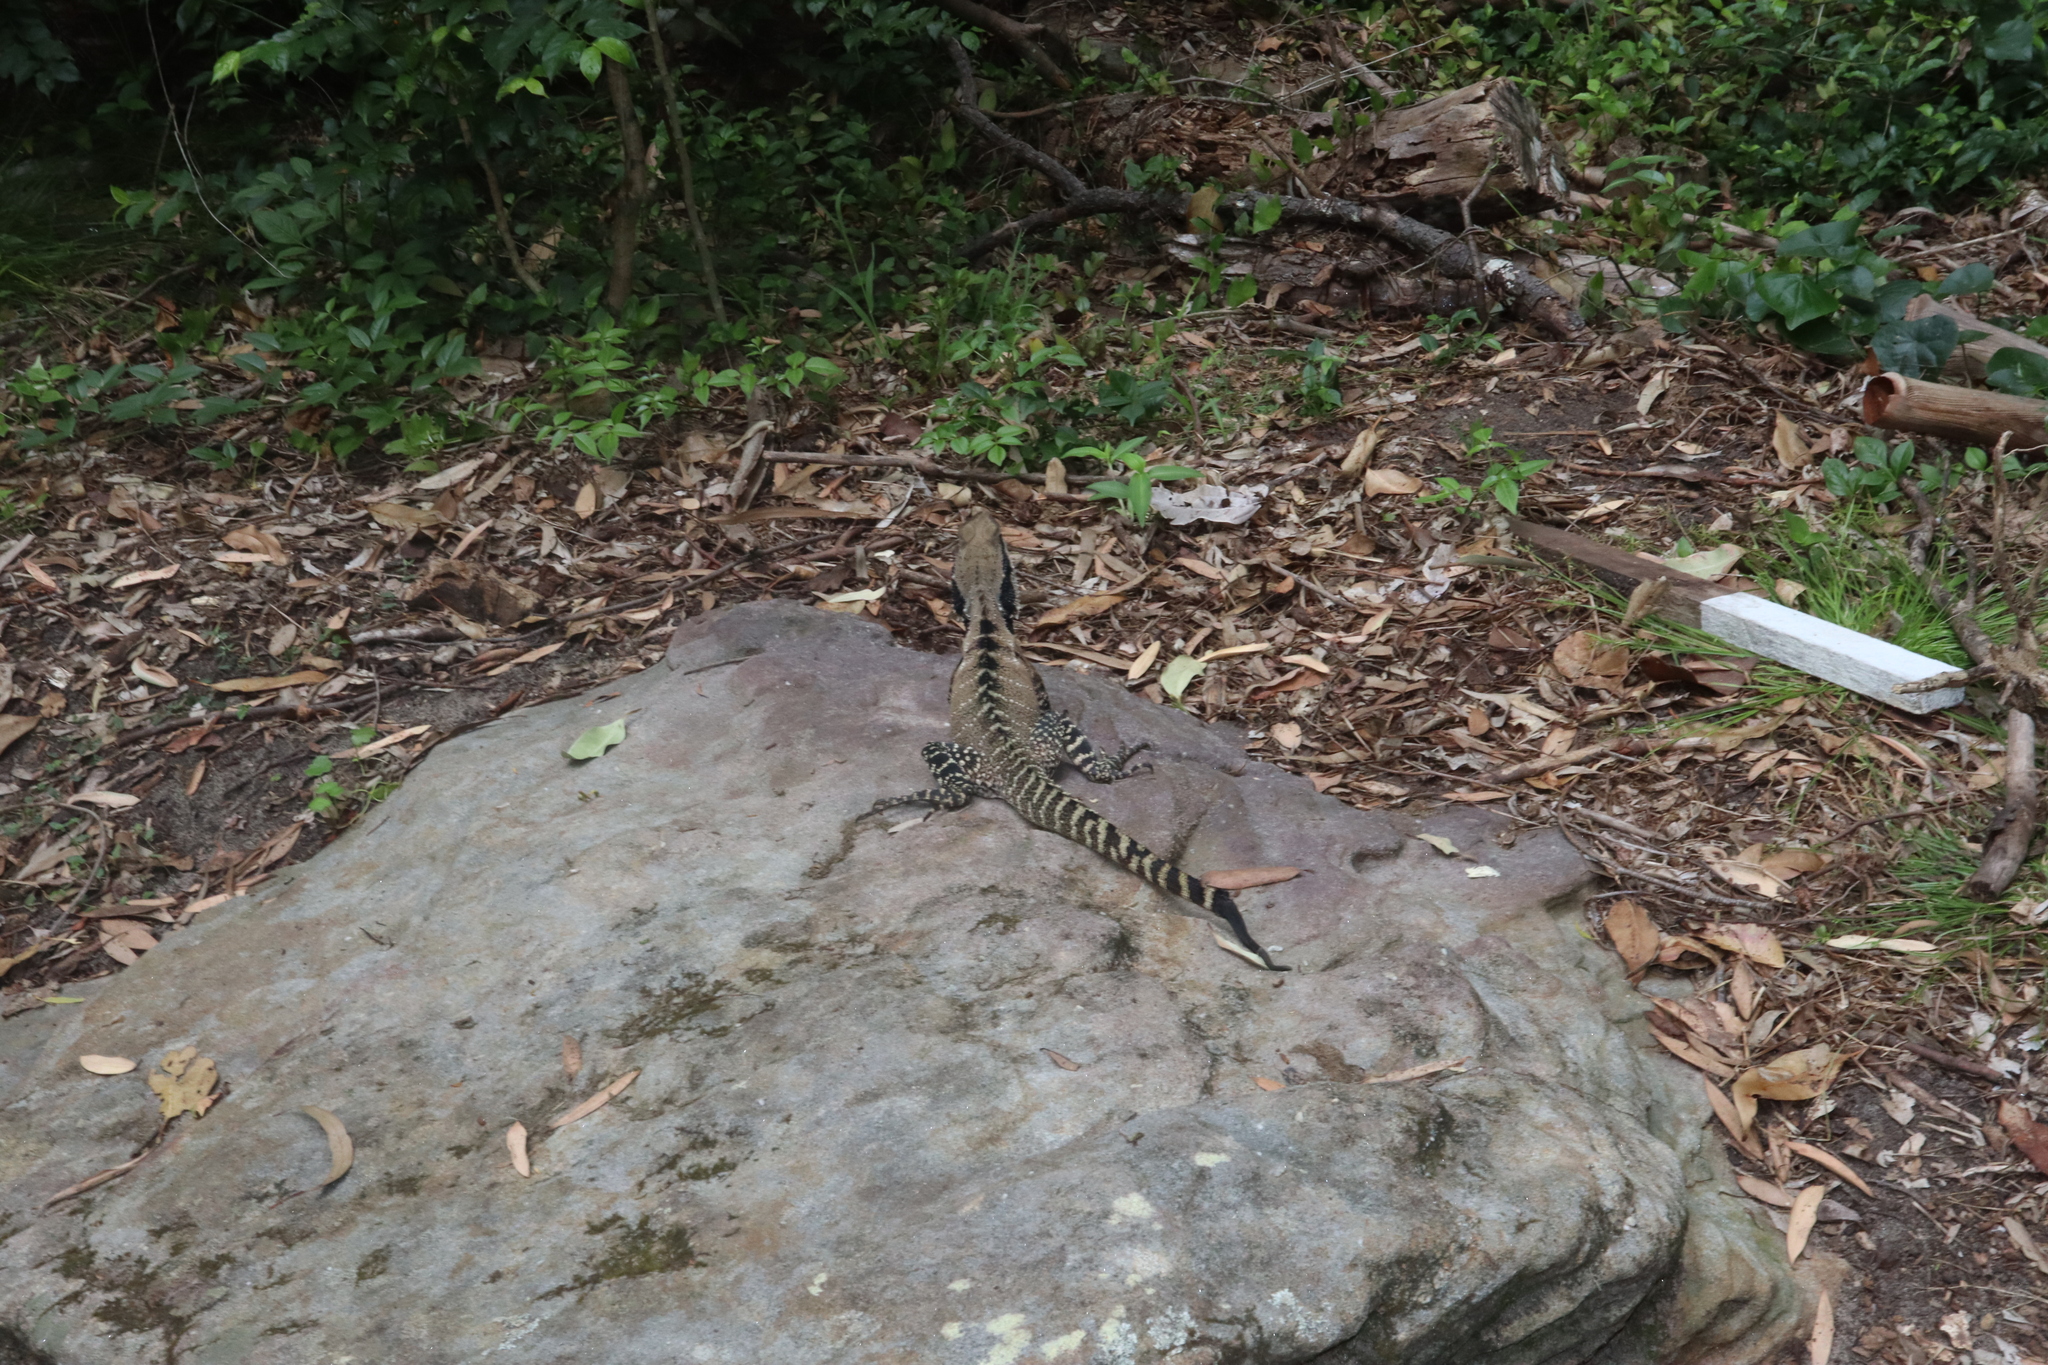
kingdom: Animalia
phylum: Chordata
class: Squamata
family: Agamidae
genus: Intellagama
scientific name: Intellagama lesueurii
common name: Eastern water dragon
